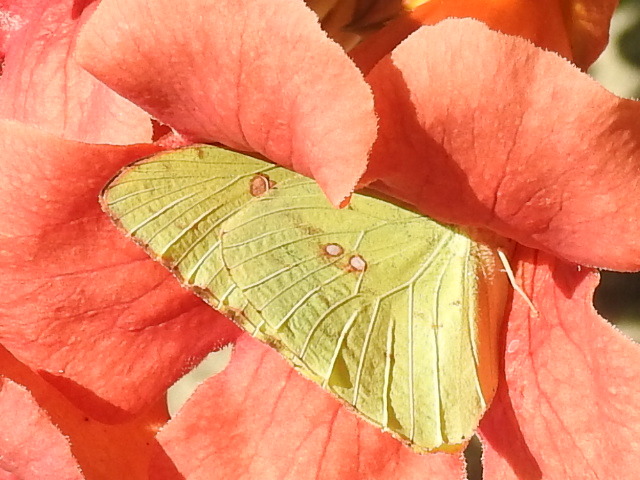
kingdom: Animalia
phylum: Arthropoda
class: Insecta
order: Lepidoptera
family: Pieridae
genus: Phoebis
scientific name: Phoebis sennae
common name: Cloudless sulphur
